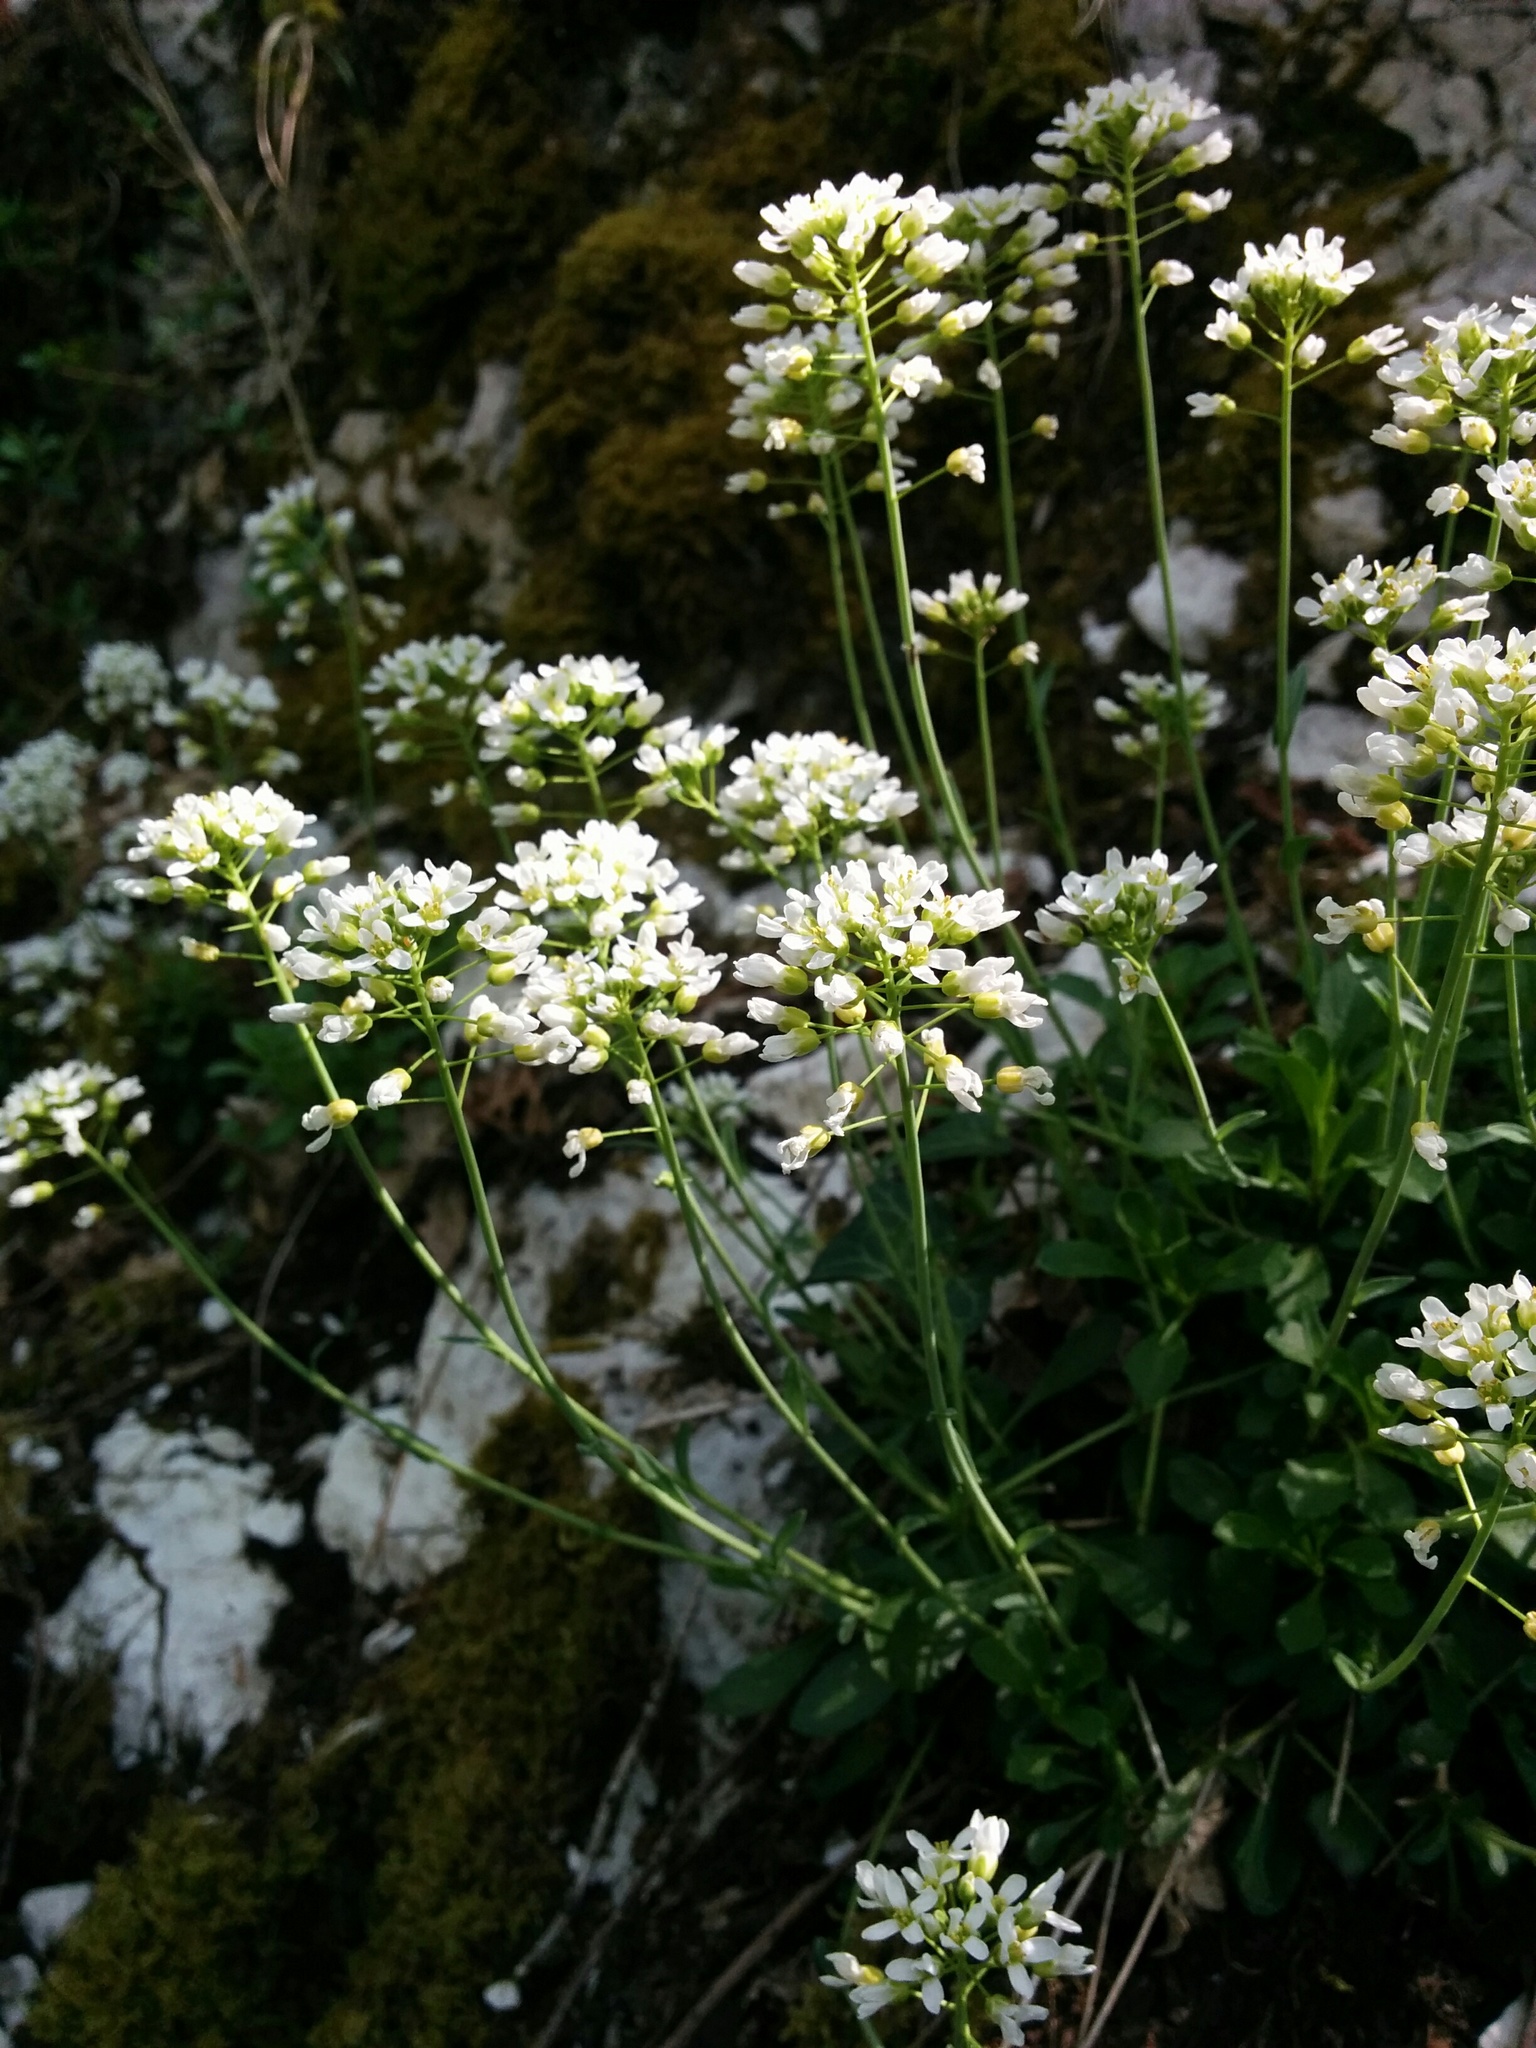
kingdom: Plantae
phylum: Tracheophyta
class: Magnoliopsida
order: Brassicales
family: Brassicaceae
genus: Noccaea
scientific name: Noccaea montana
